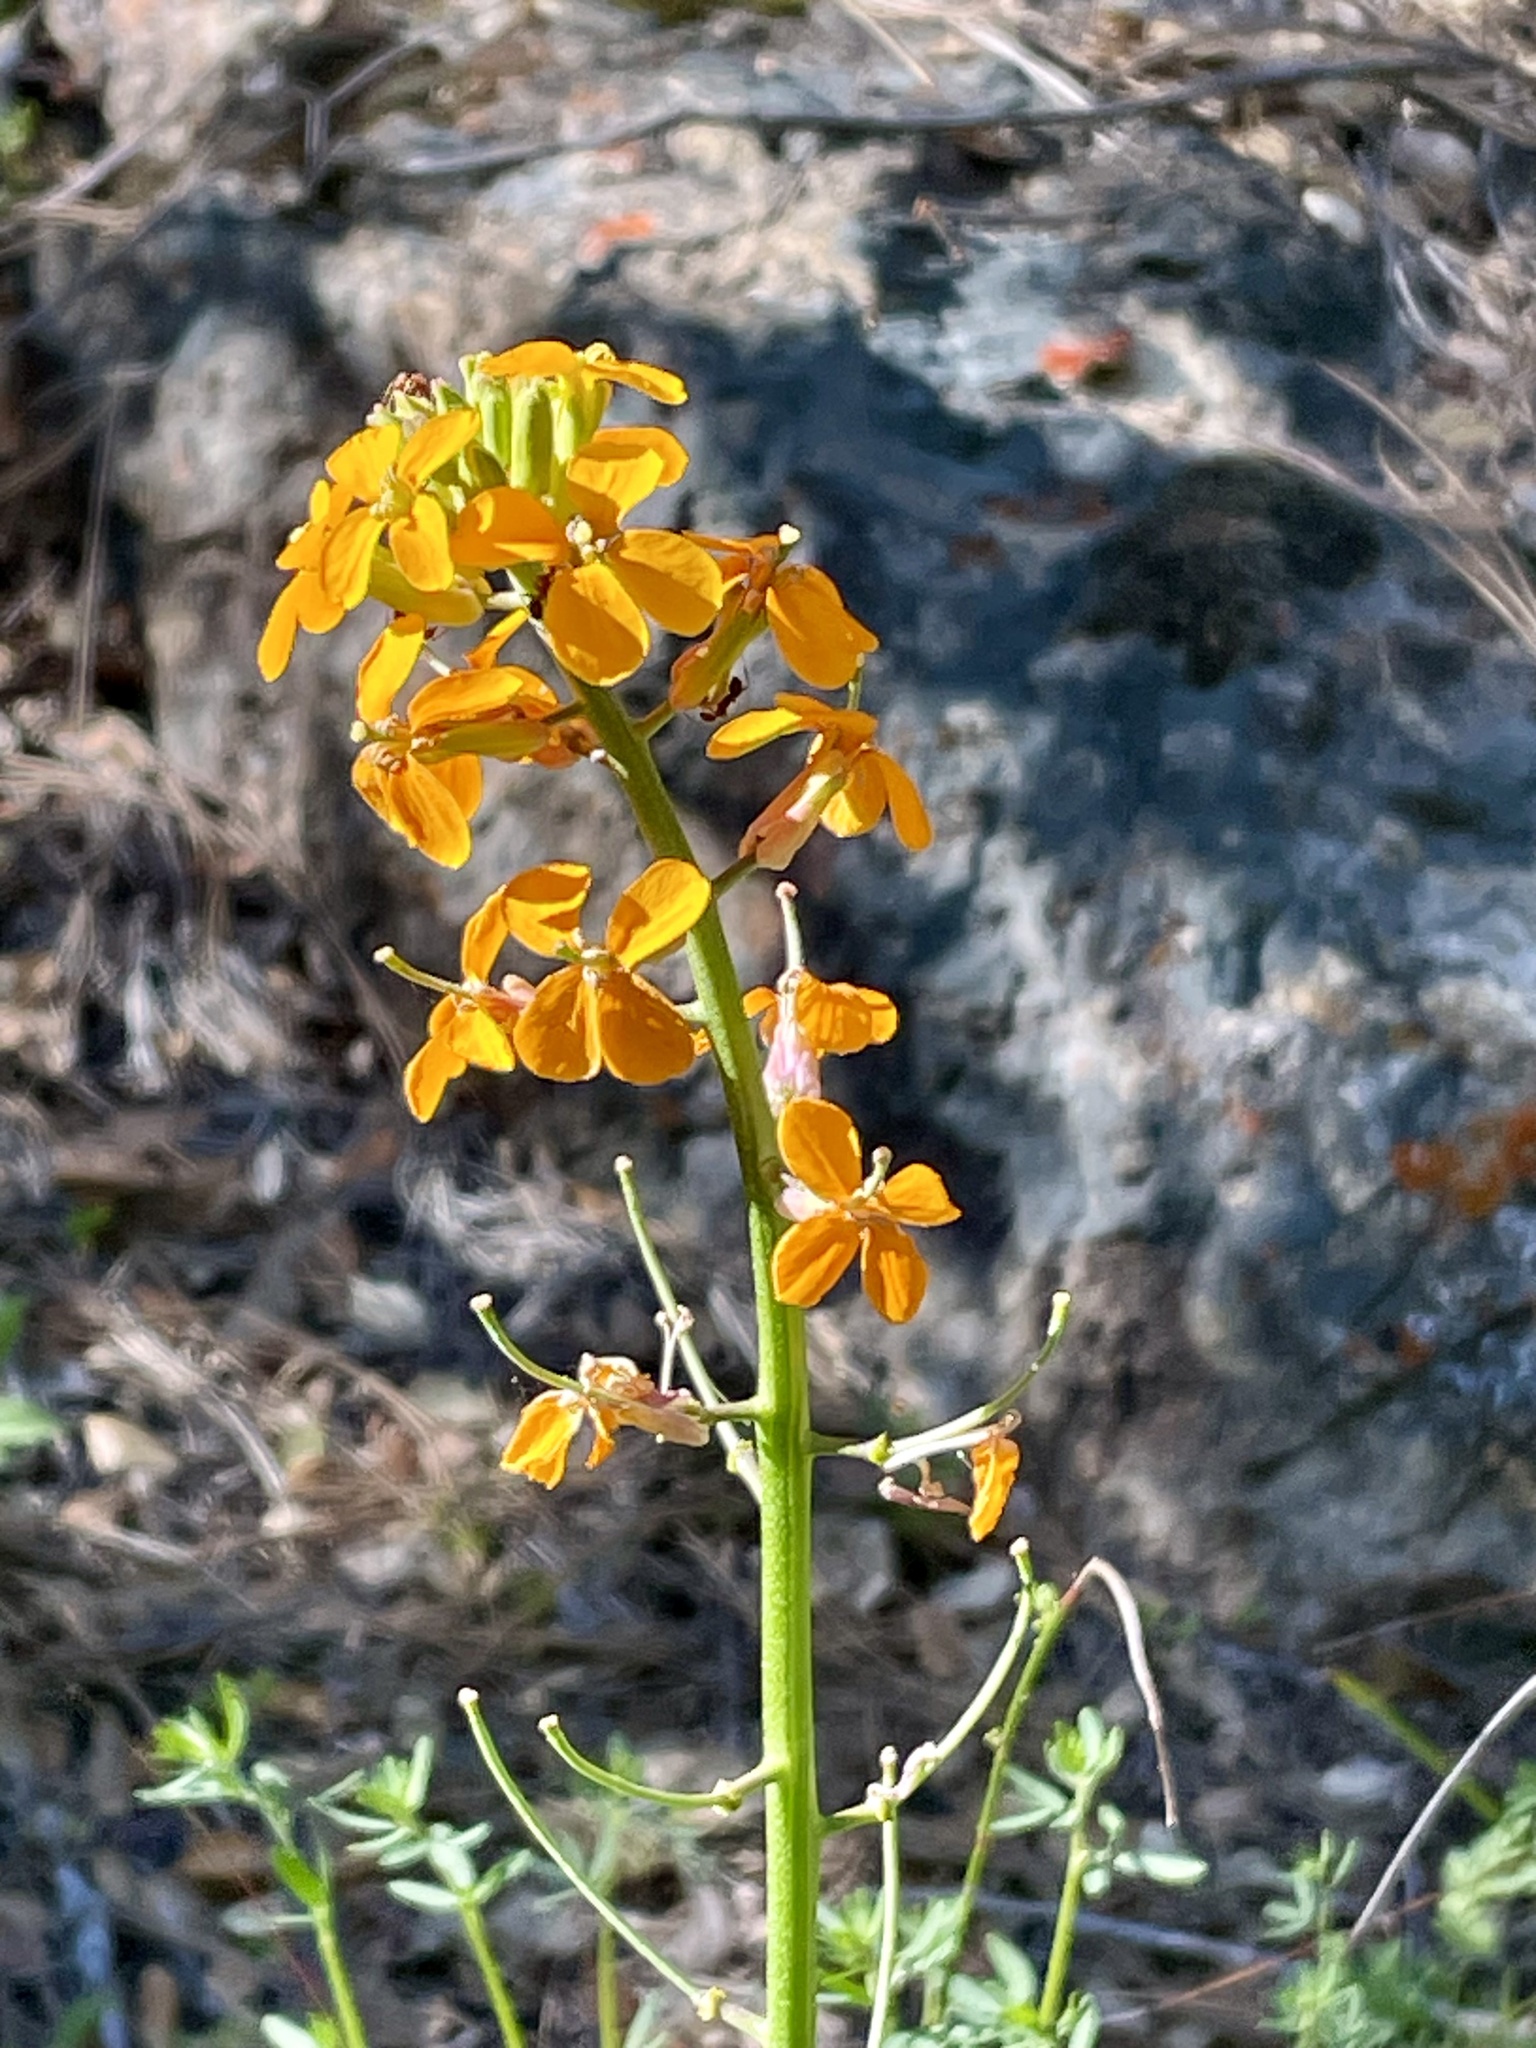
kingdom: Plantae
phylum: Tracheophyta
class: Magnoliopsida
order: Brassicales
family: Brassicaceae
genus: Erysimum
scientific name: Erysimum capitatum
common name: Western wallflower
